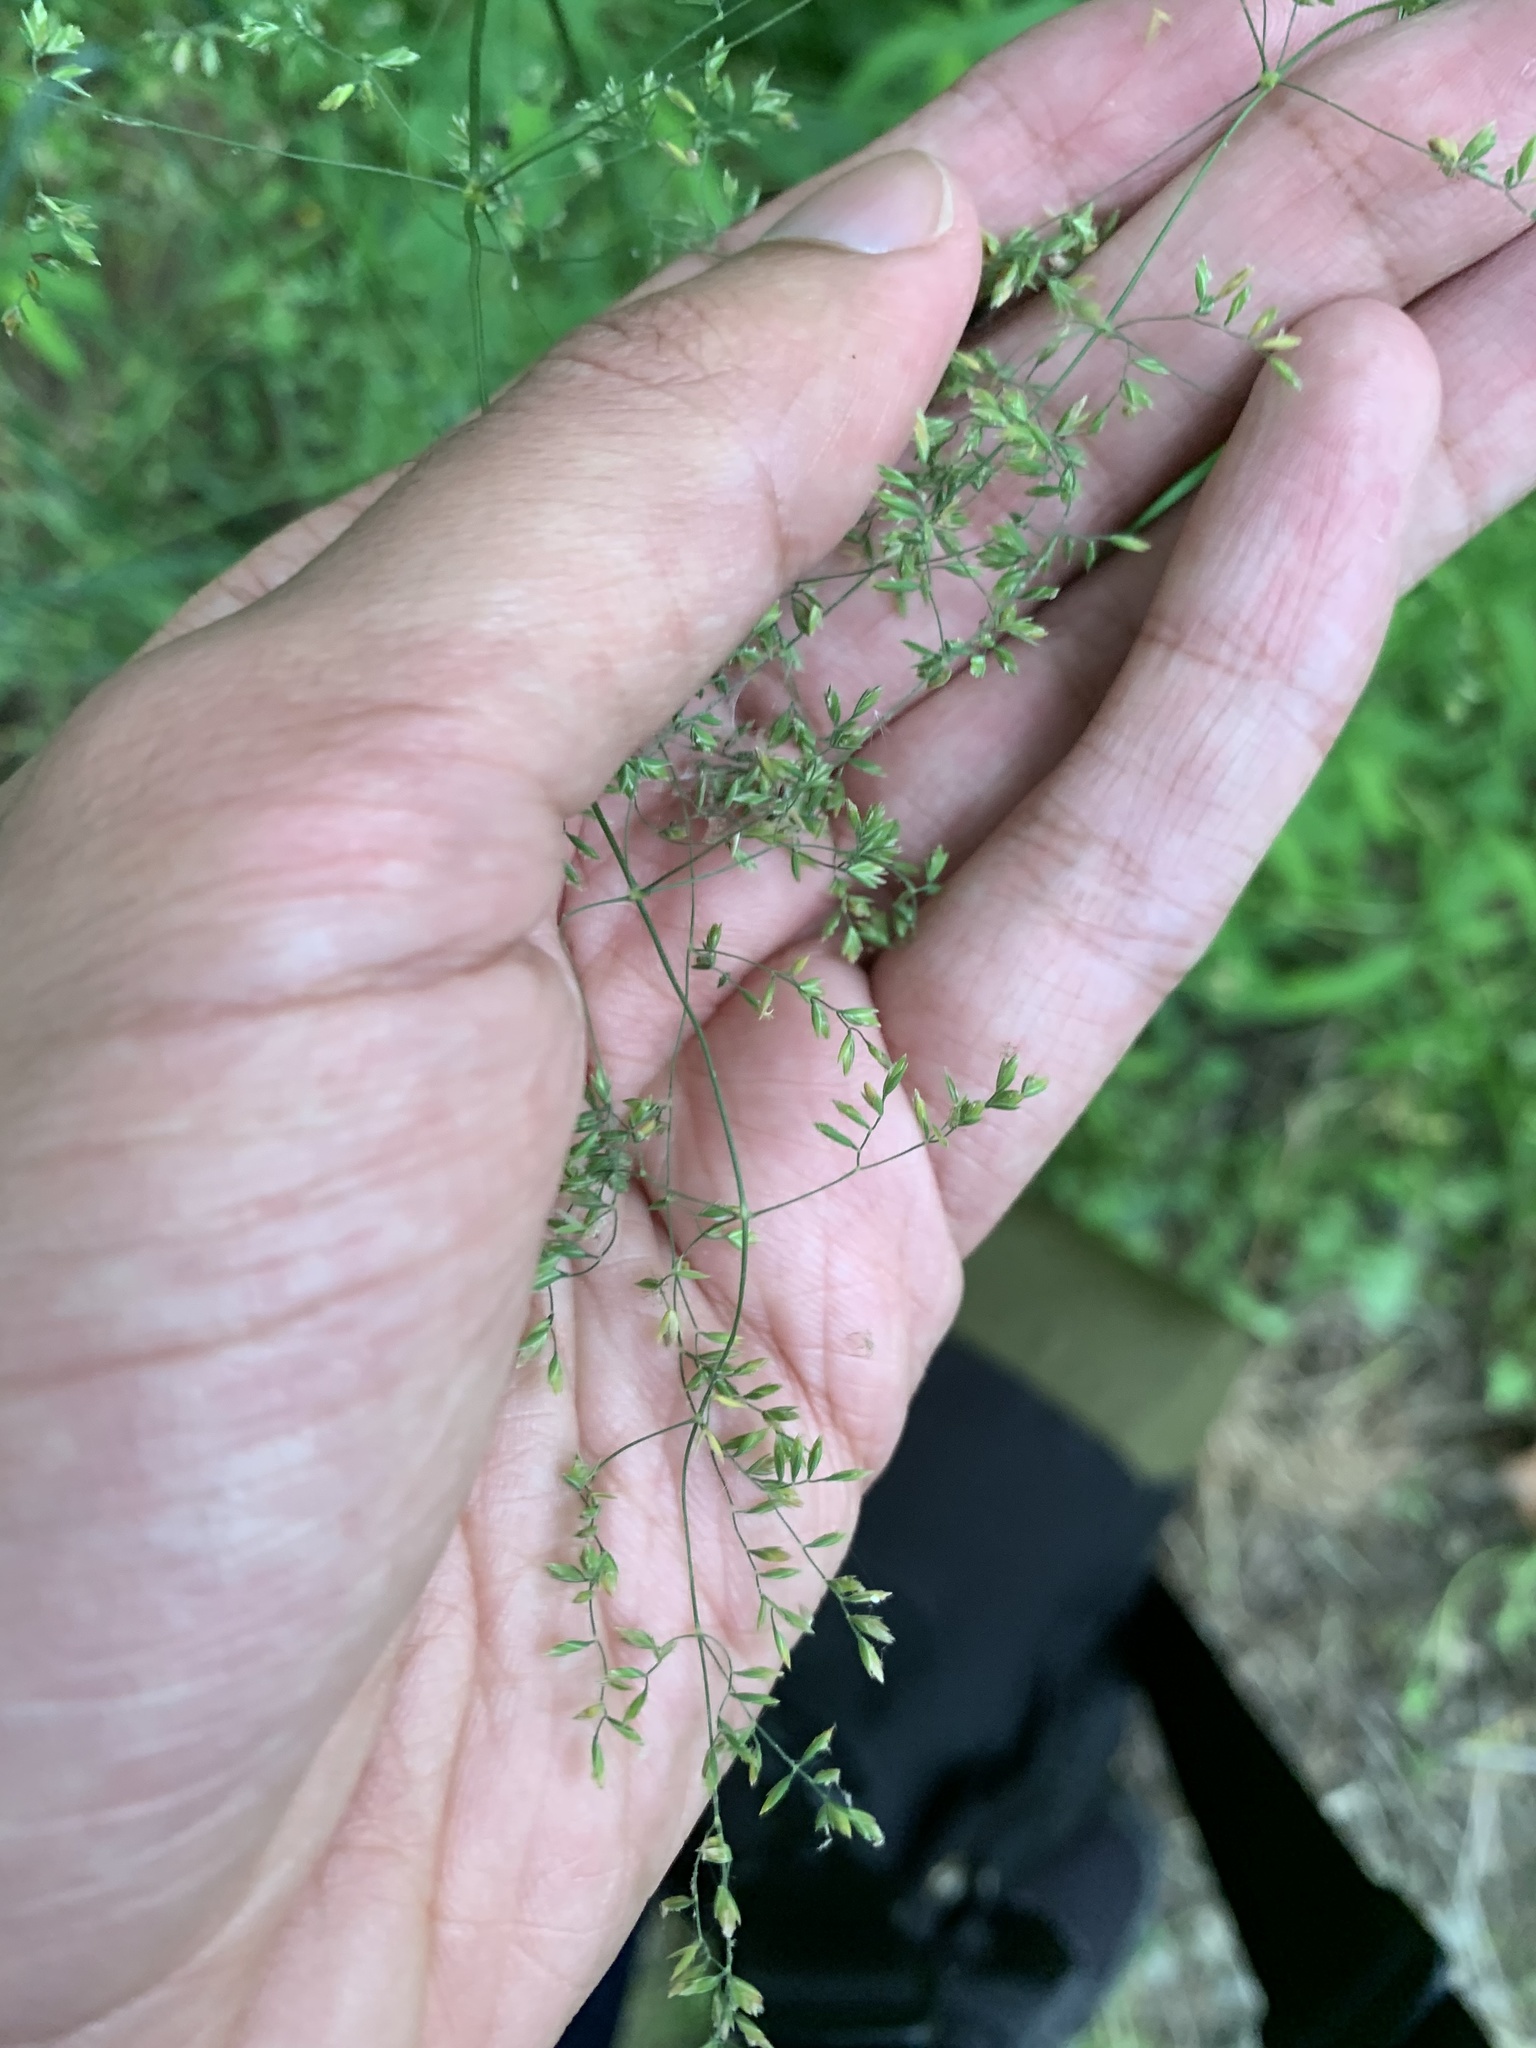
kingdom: Plantae
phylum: Tracheophyta
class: Liliopsida
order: Poales
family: Poaceae
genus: Festuca
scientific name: Festuca paradoxa
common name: Cluster fescue
